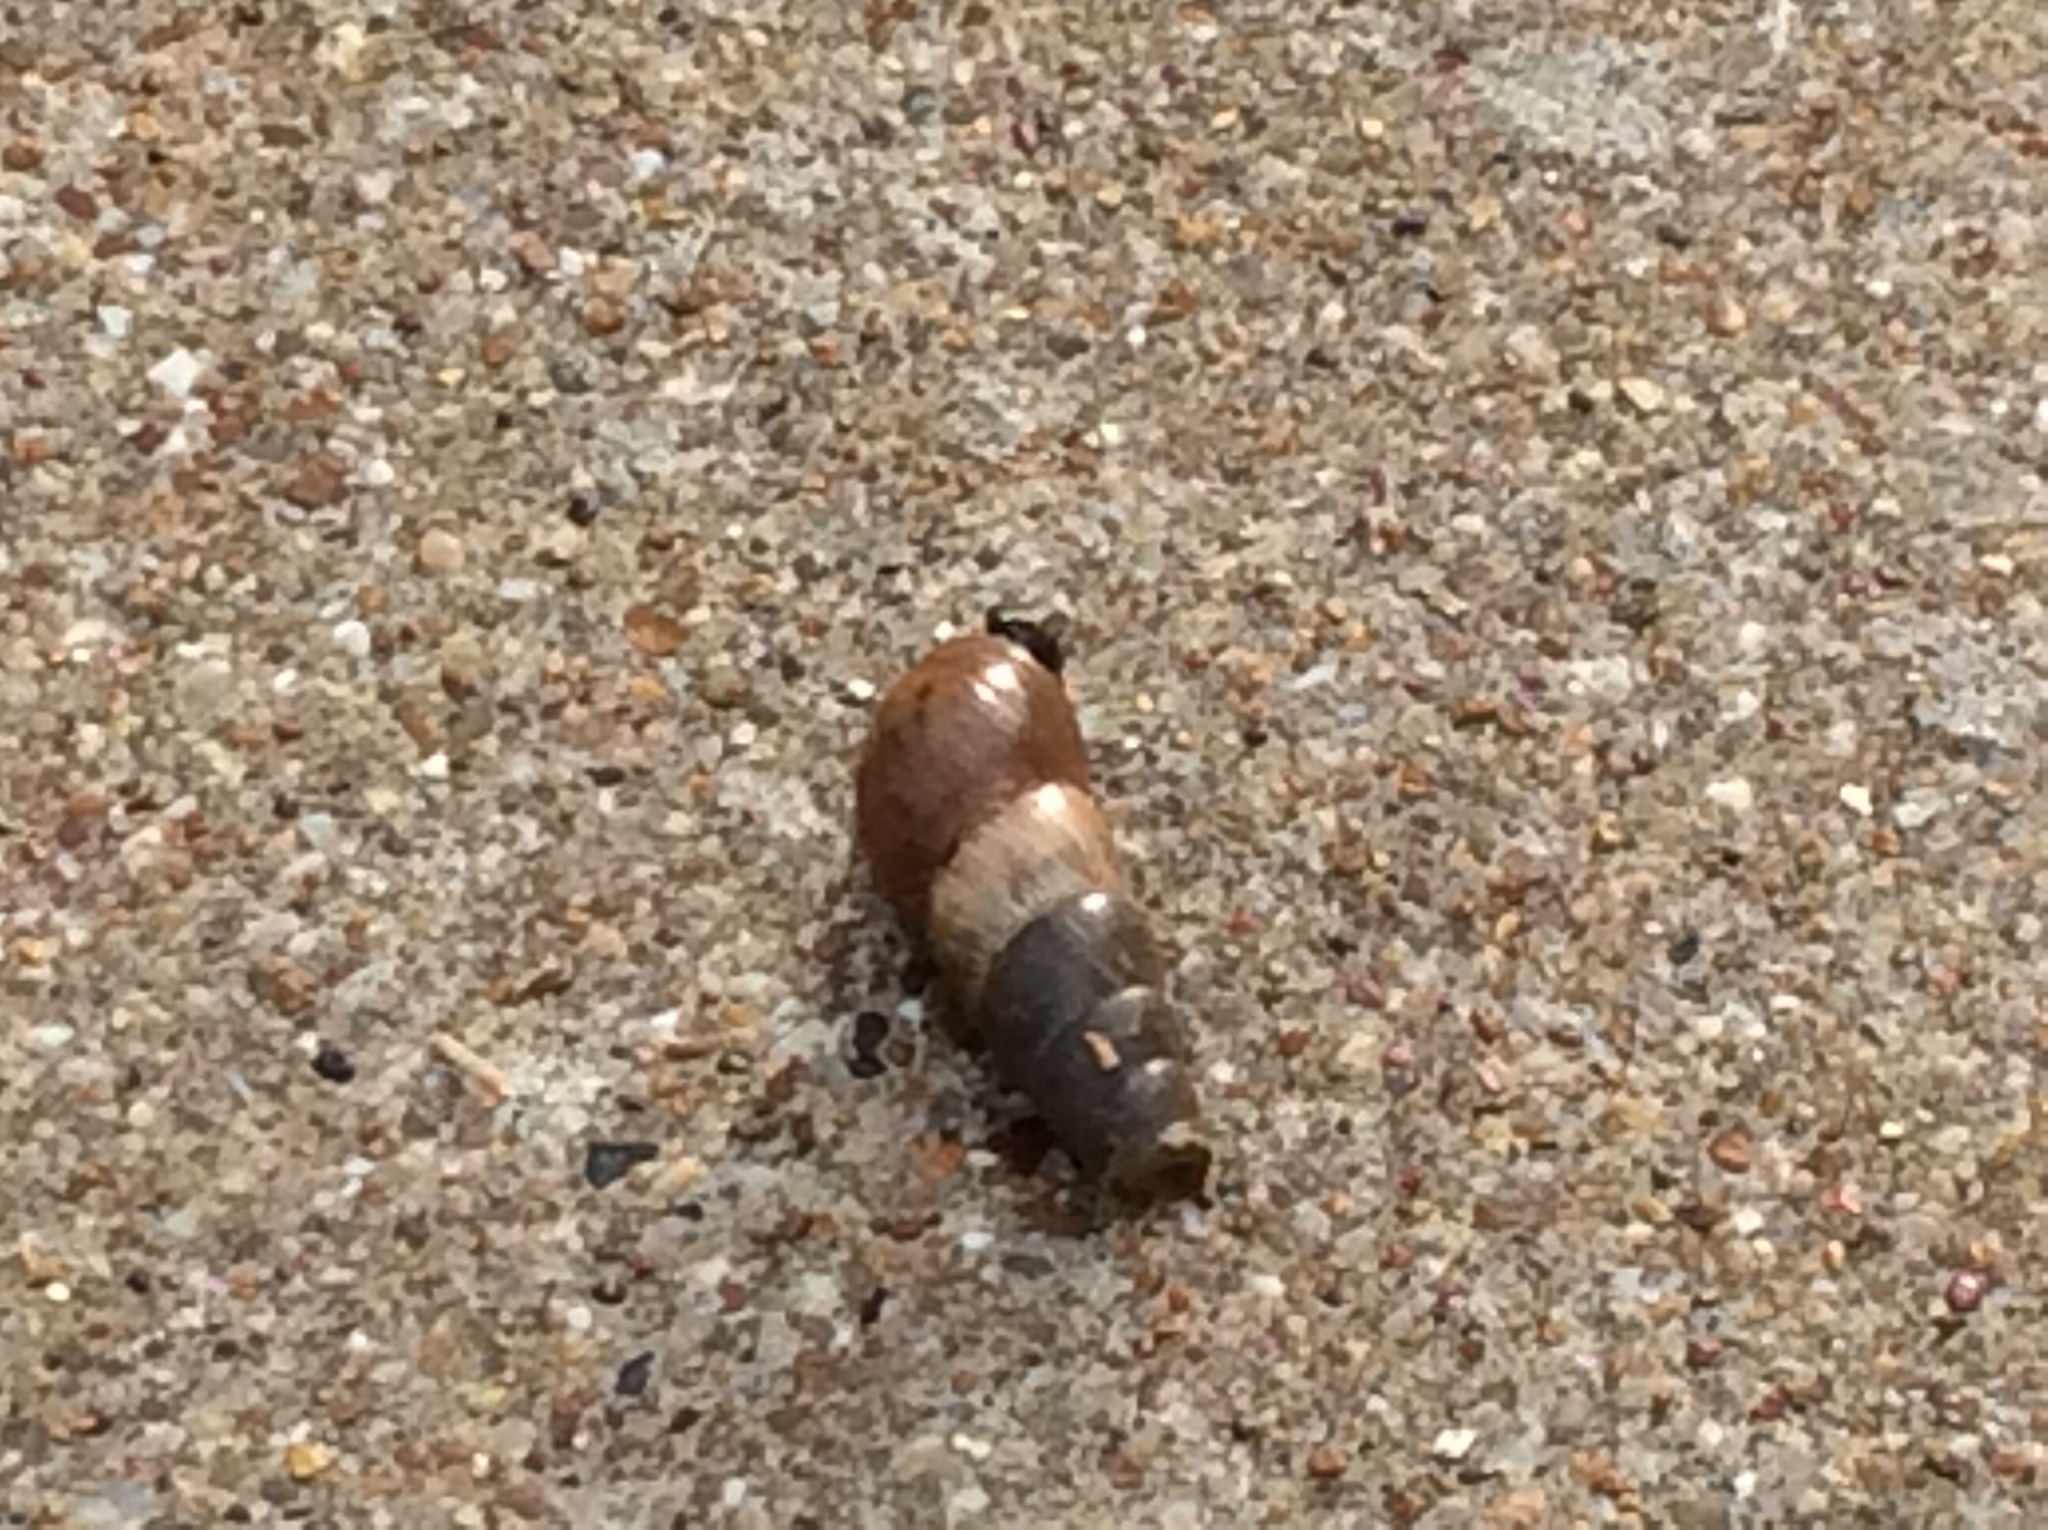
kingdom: Animalia
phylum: Mollusca
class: Gastropoda
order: Stylommatophora
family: Achatinidae
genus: Rumina
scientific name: Rumina decollata
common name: Decollate snail
